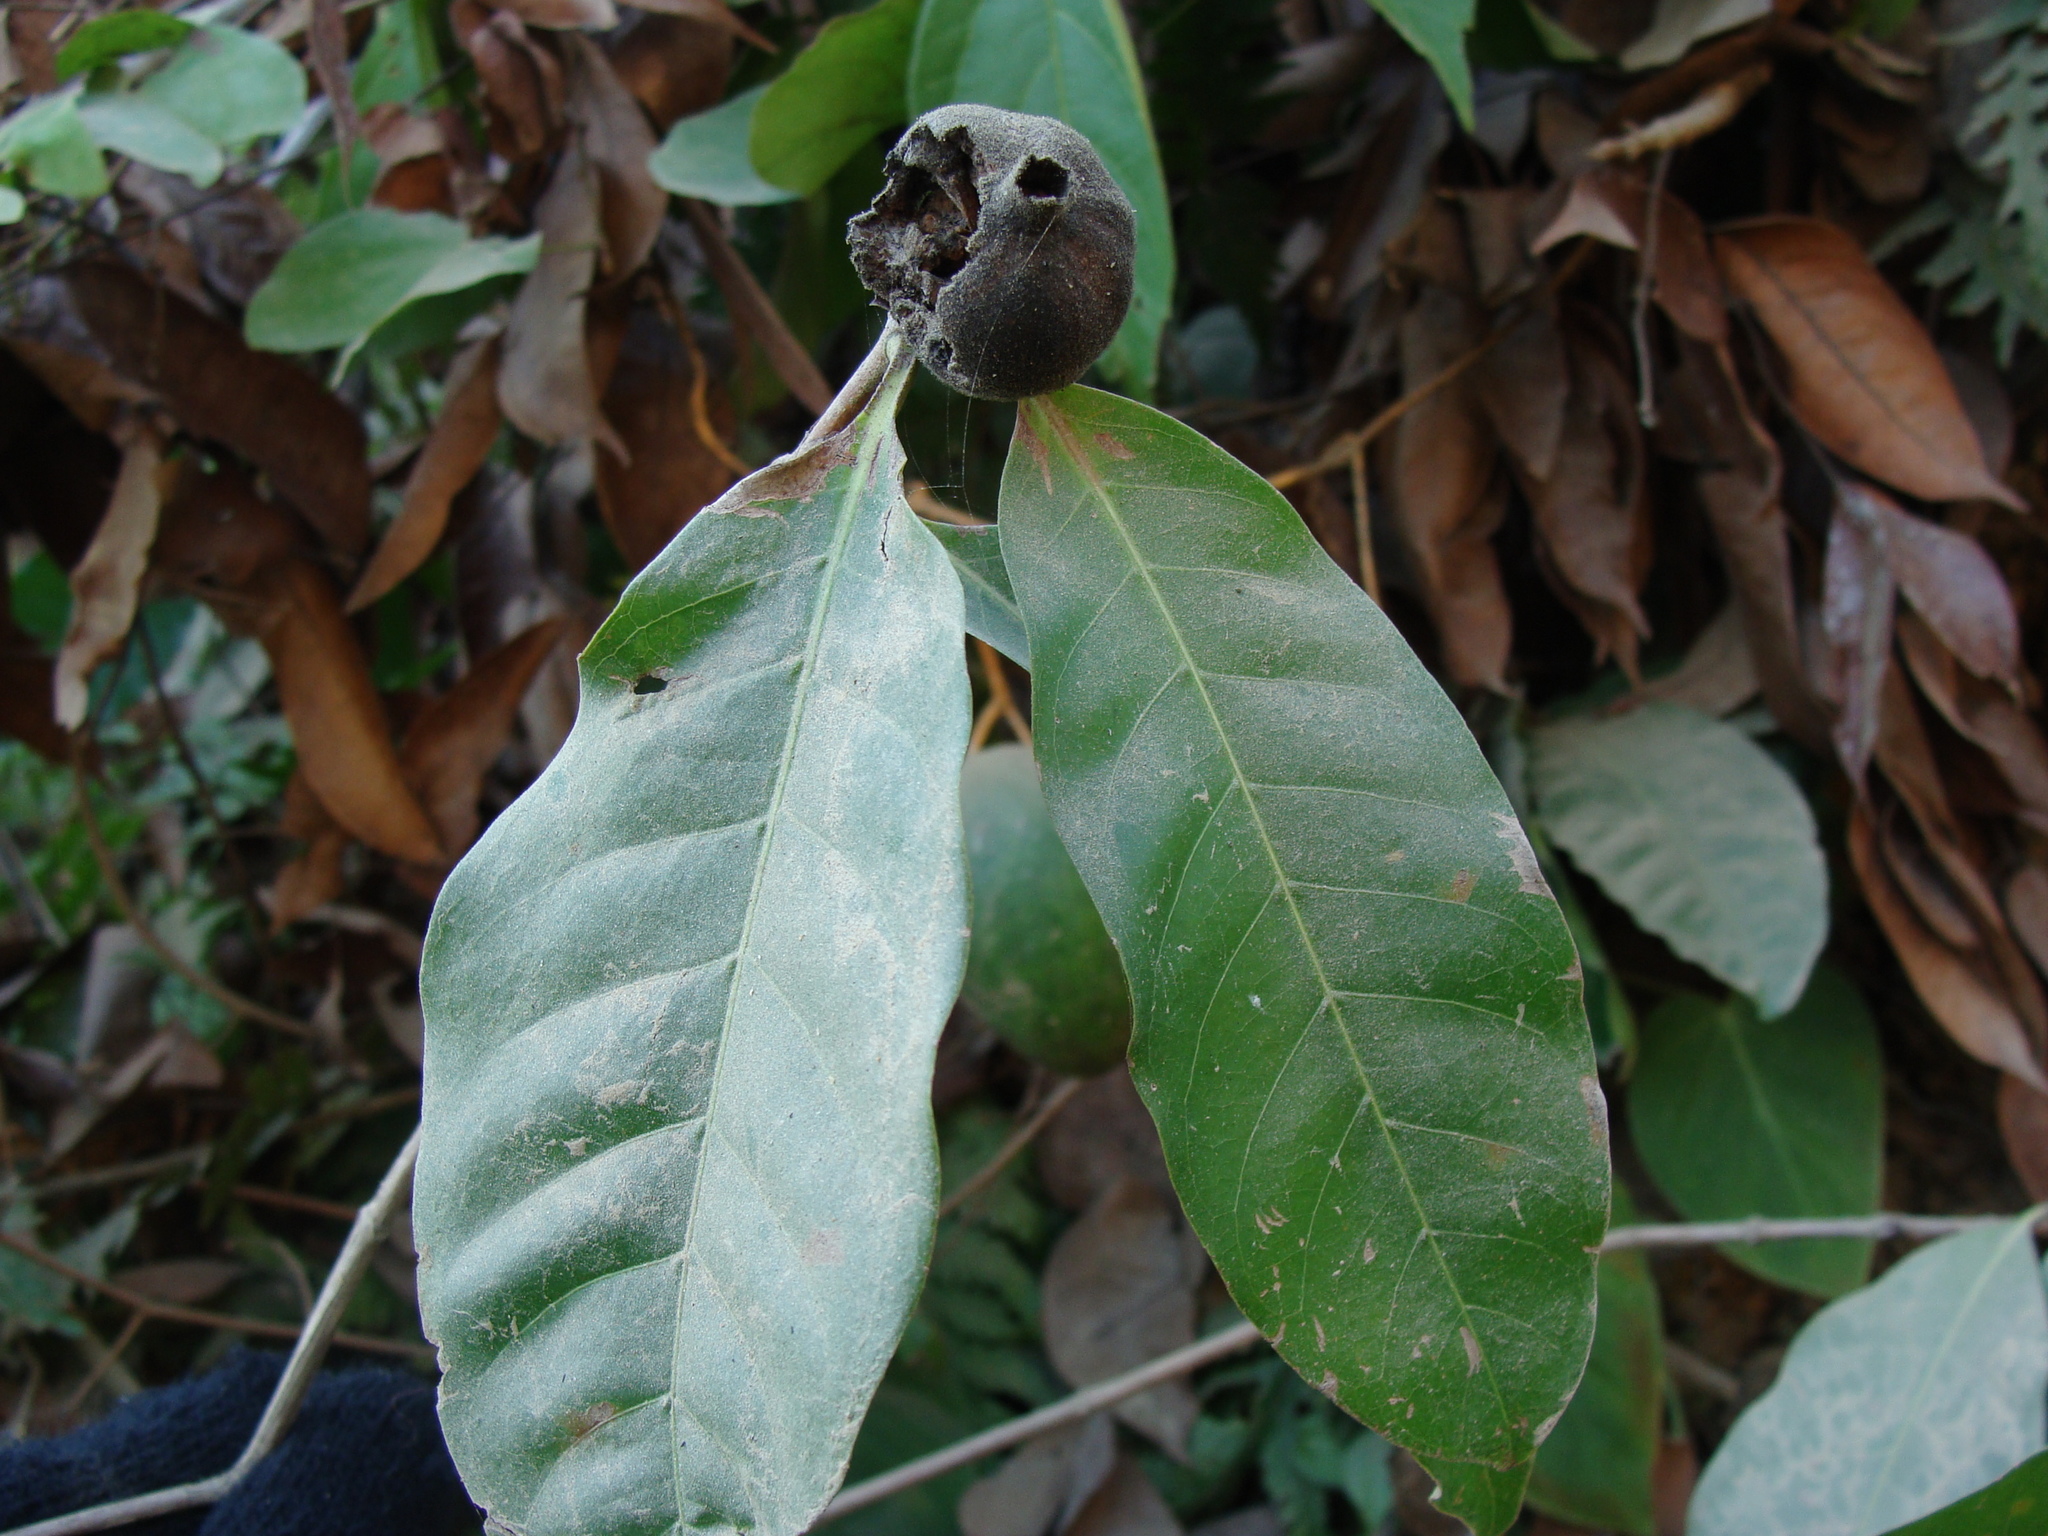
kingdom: Plantae
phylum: Tracheophyta
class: Magnoliopsida
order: Gentianales
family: Rubiaceae
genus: Genipa
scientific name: Genipa americana
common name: Genipap
